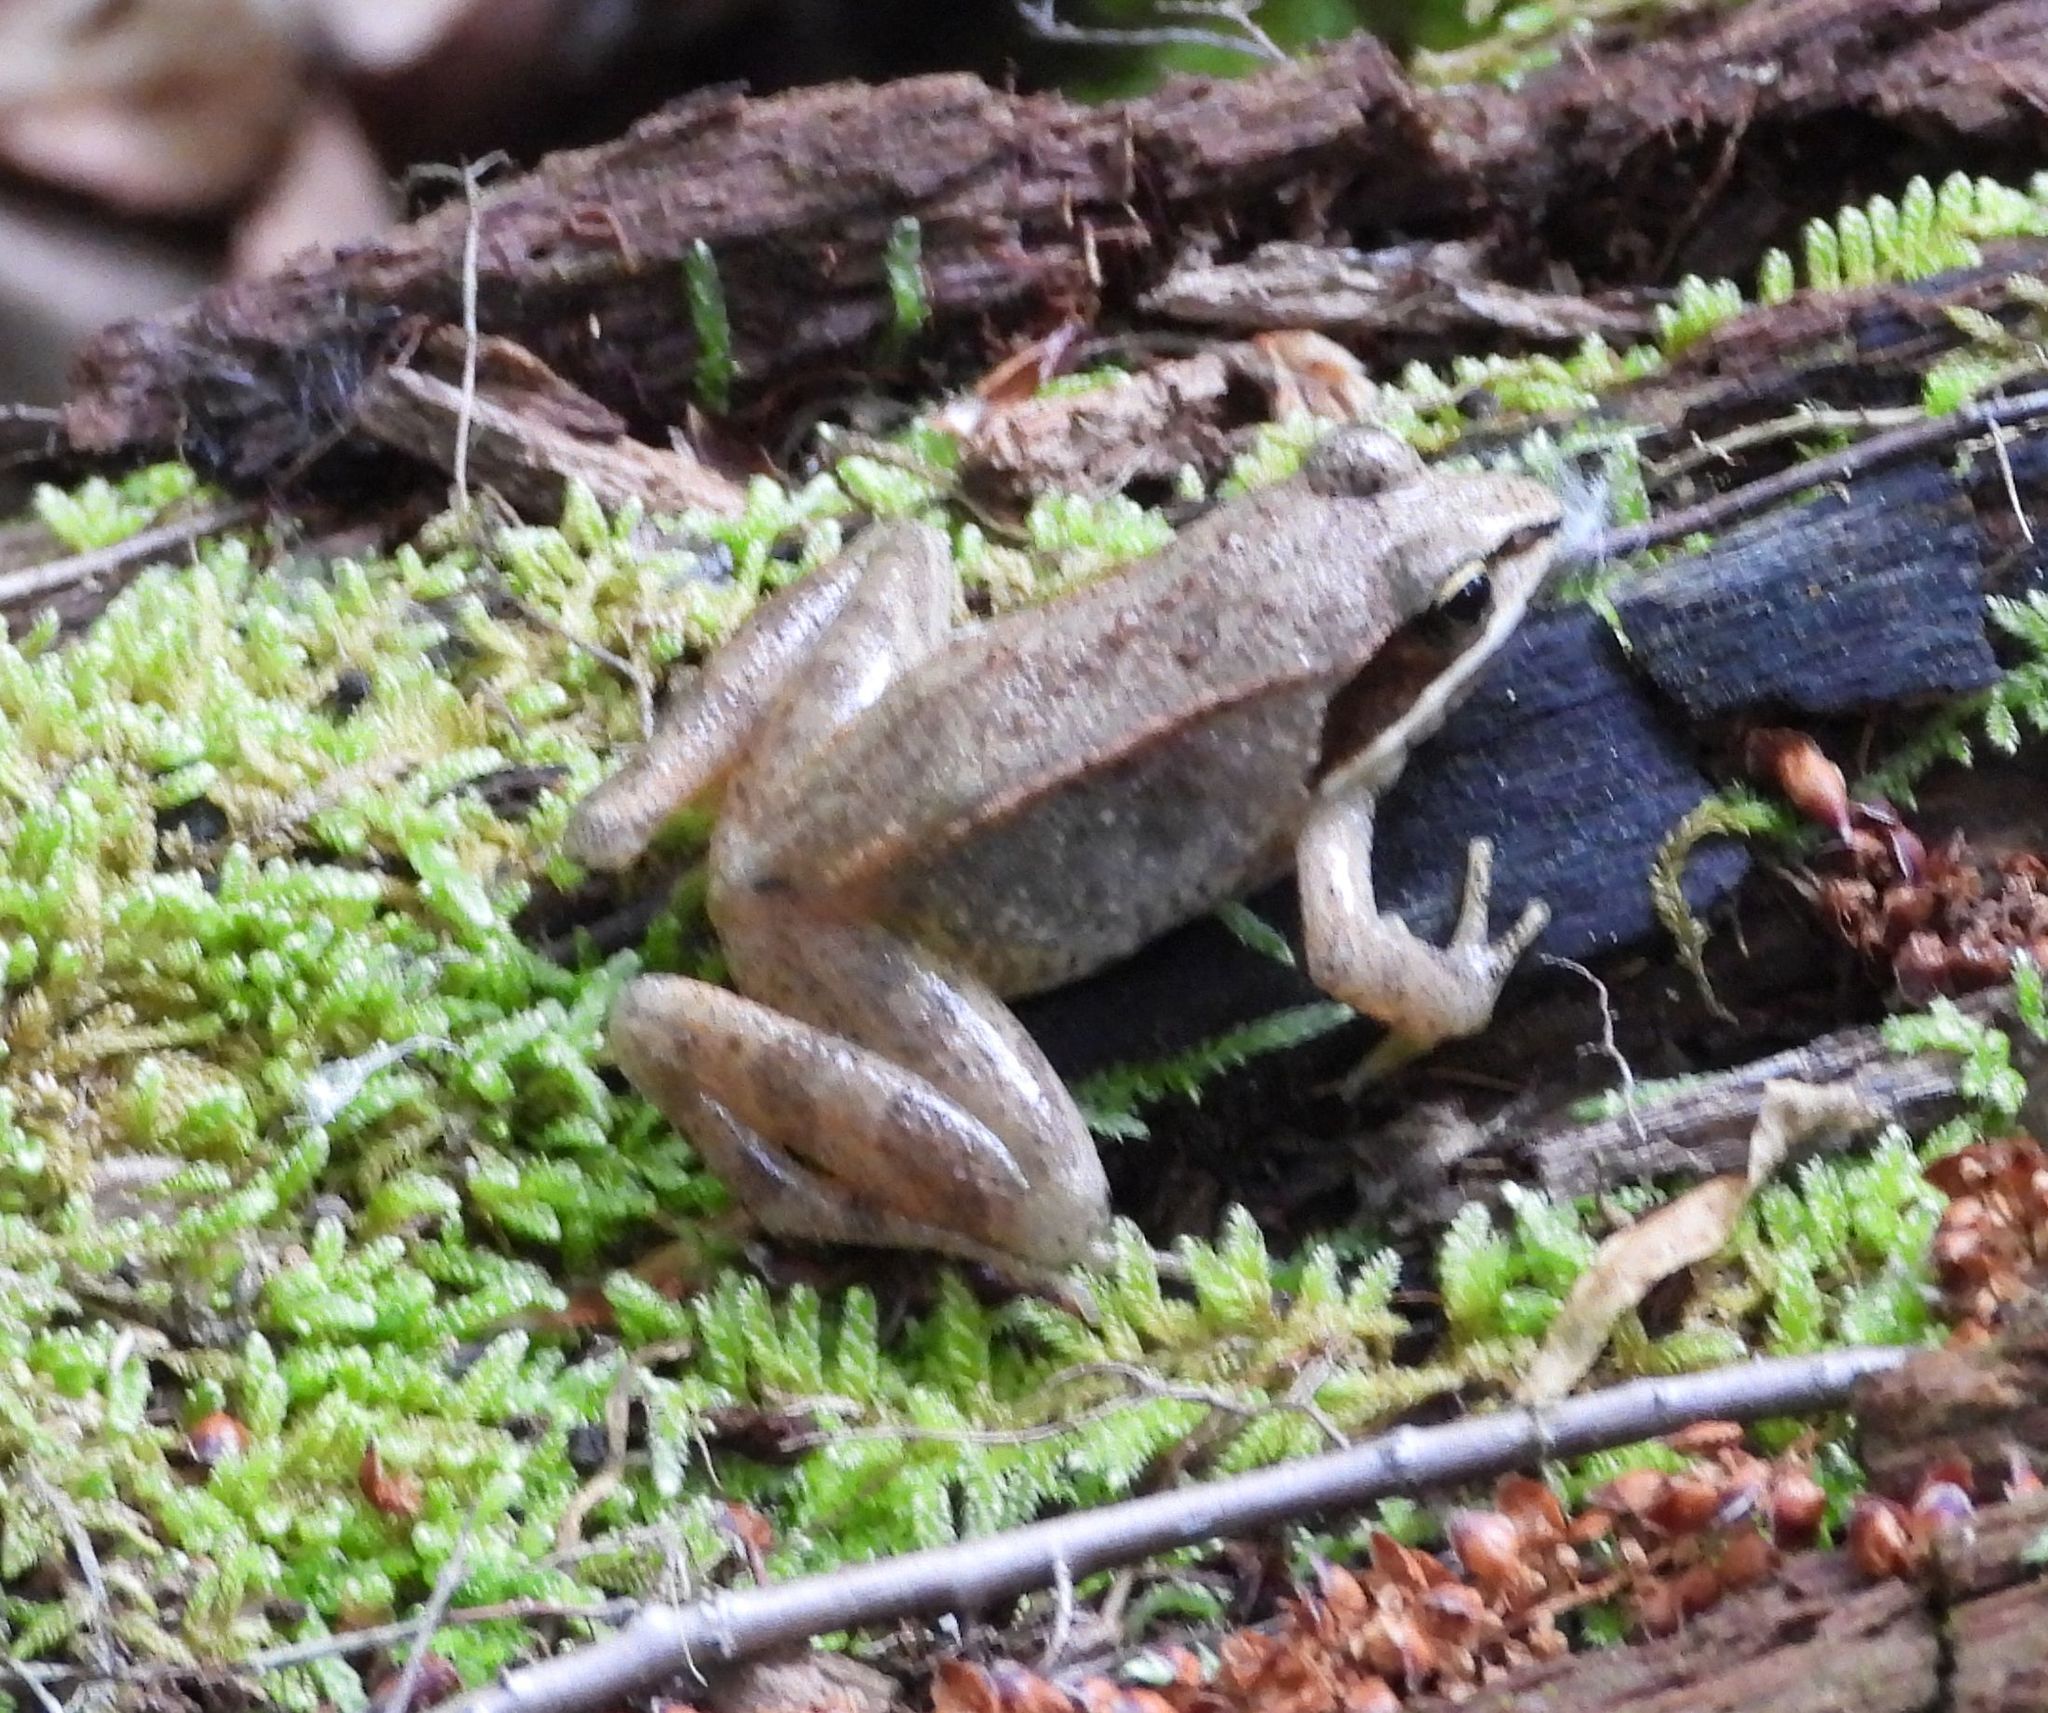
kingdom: Animalia
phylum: Chordata
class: Amphibia
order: Anura
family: Ranidae
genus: Lithobates
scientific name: Lithobates sylvaticus
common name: Wood frog
